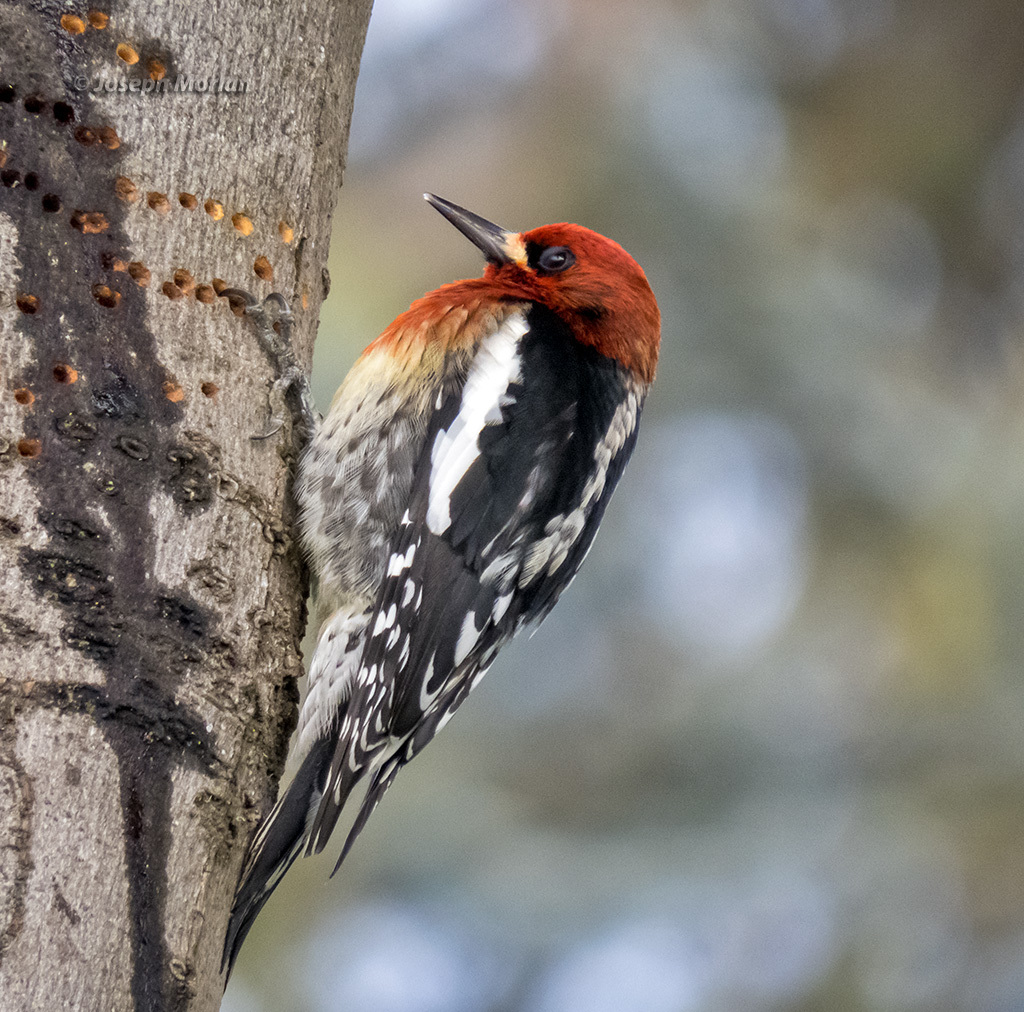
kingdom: Animalia
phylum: Chordata
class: Aves
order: Piciformes
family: Picidae
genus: Sphyrapicus
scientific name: Sphyrapicus ruber
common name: Red-breasted sapsucker
